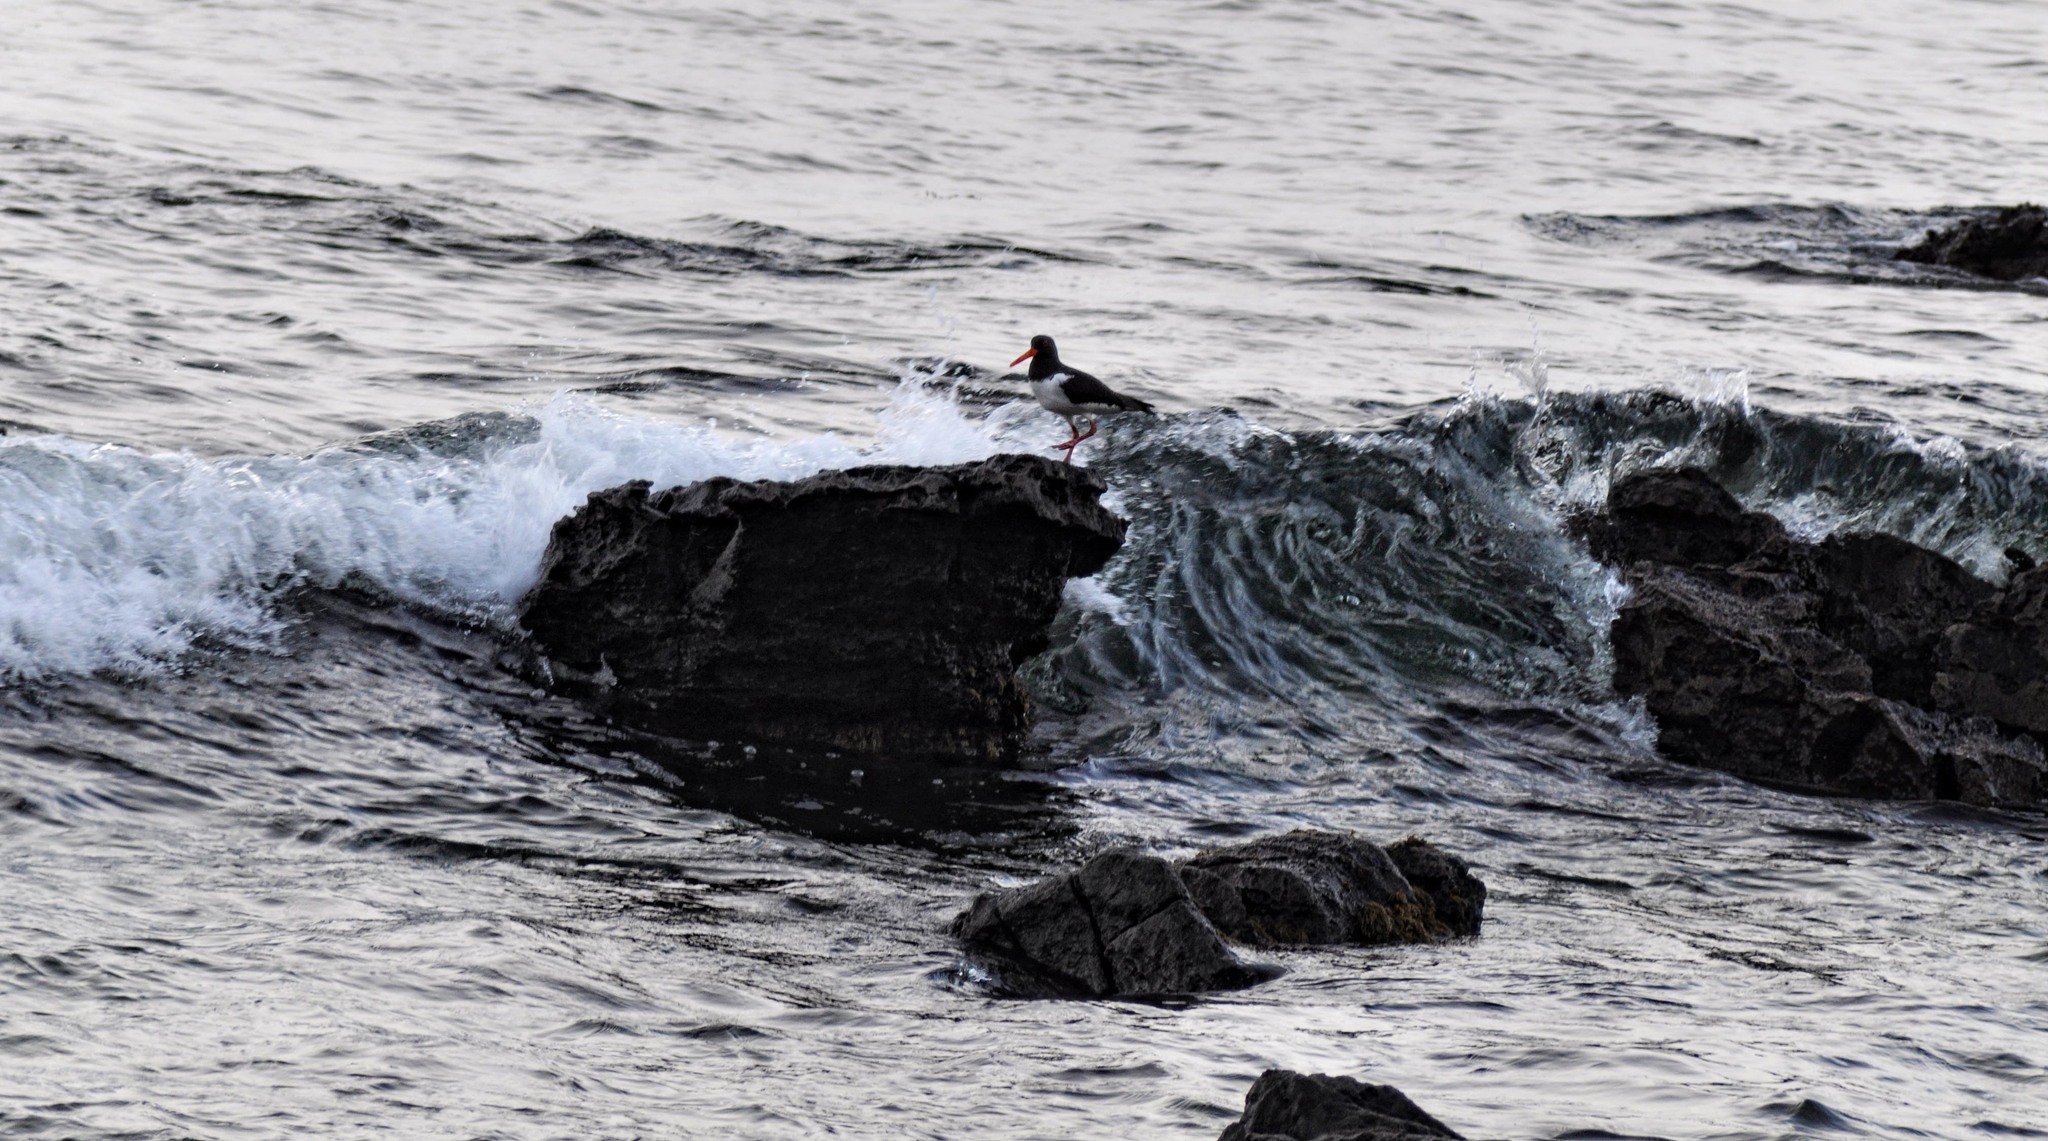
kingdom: Animalia
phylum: Chordata
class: Aves
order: Charadriiformes
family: Haematopodidae
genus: Haematopus
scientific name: Haematopus ostralegus
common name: Eurasian oystercatcher
